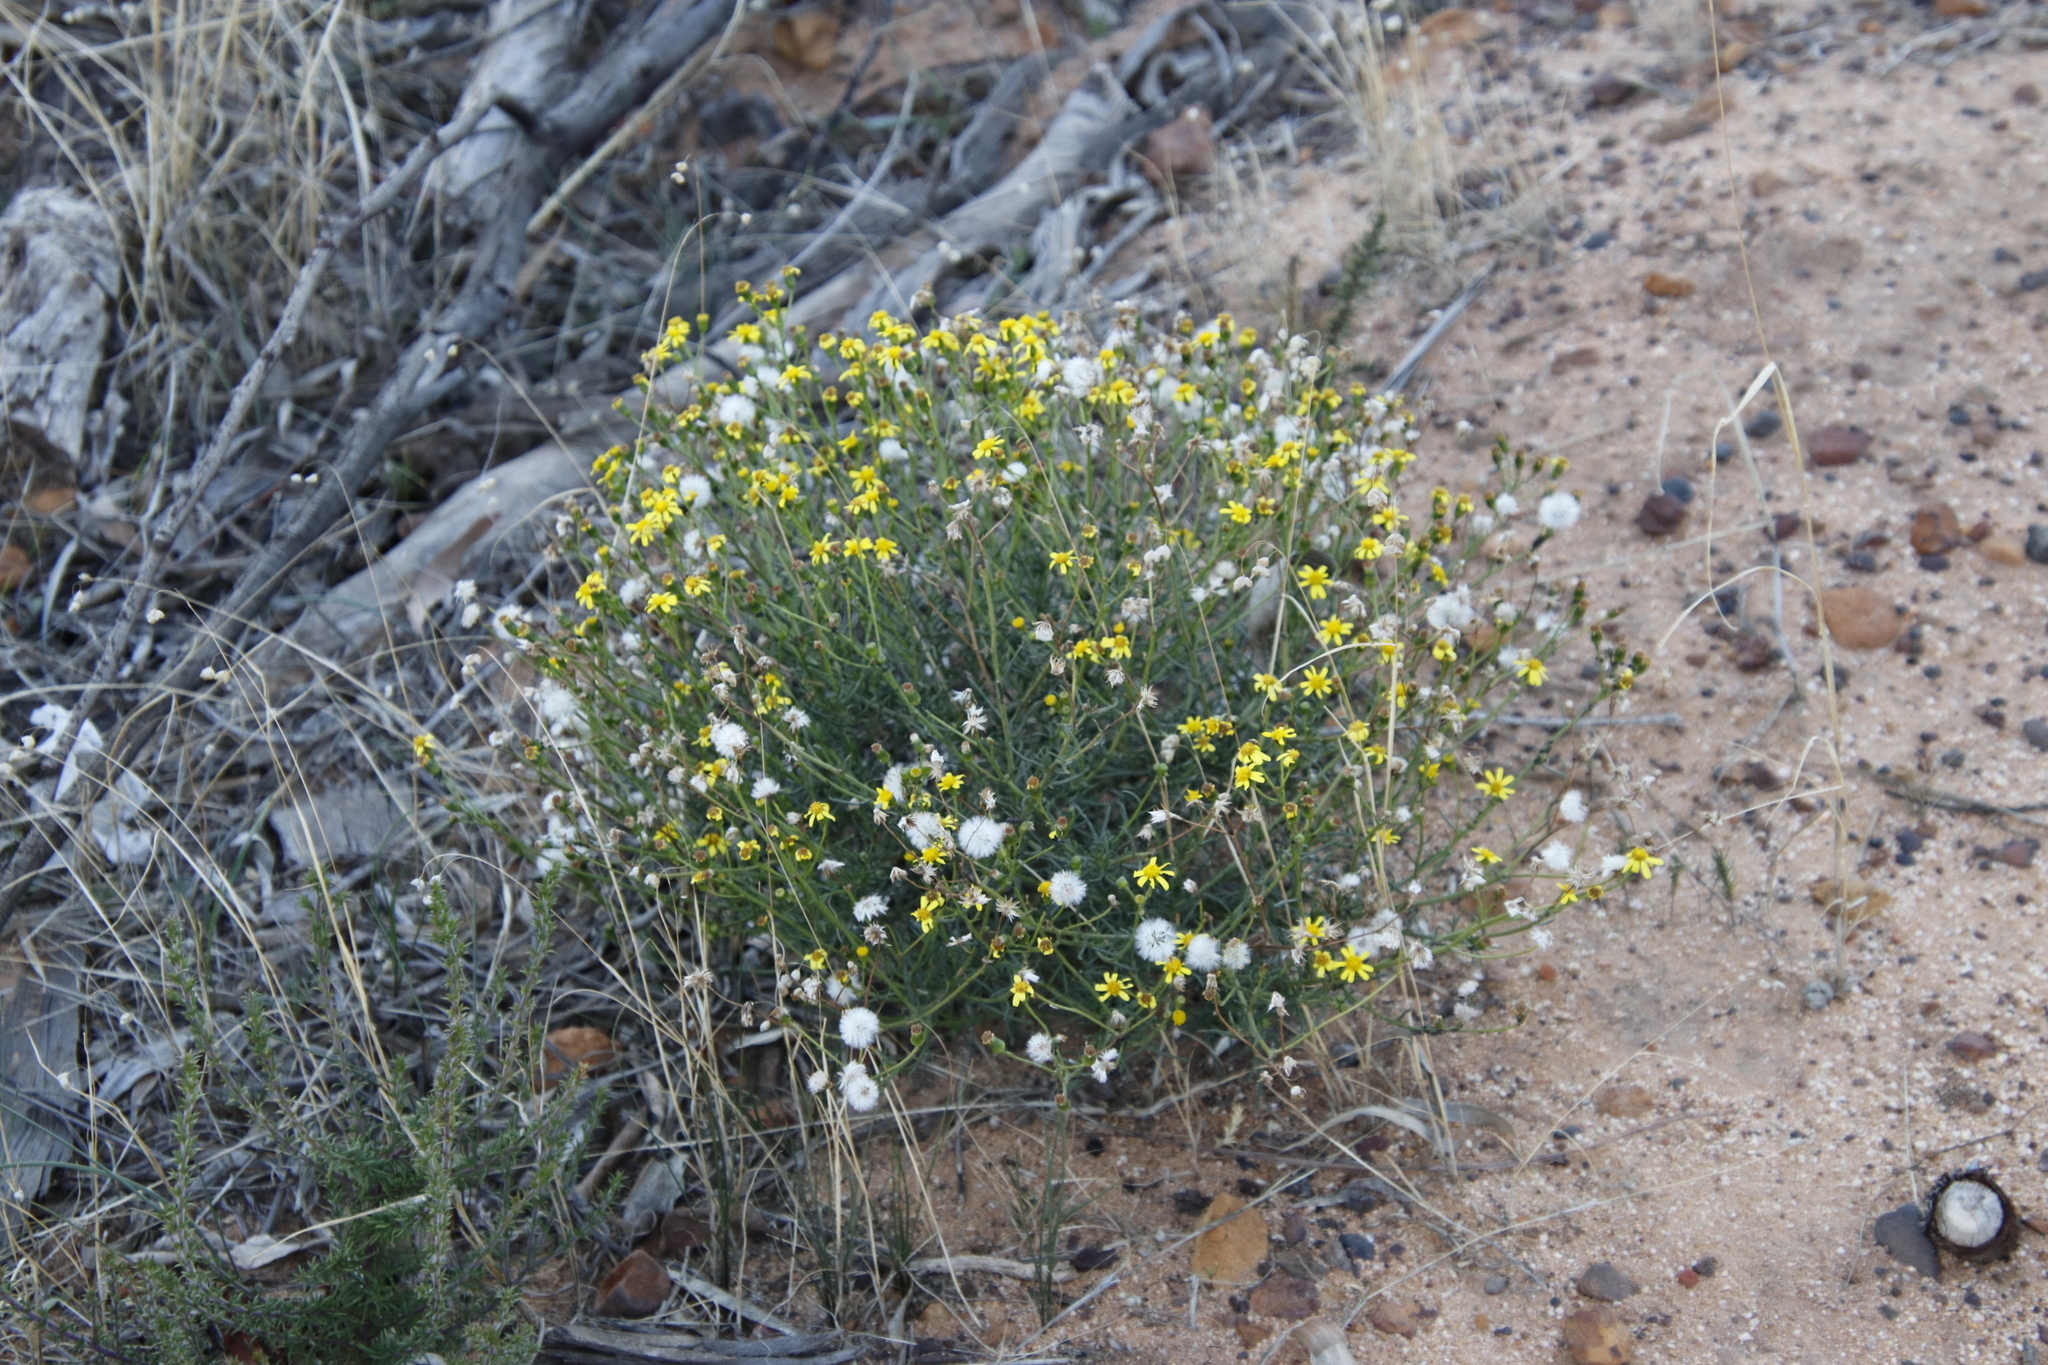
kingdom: Plantae
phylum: Tracheophyta
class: Magnoliopsida
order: Asterales
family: Asteraceae
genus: Senecio
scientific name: Senecio burchellii
